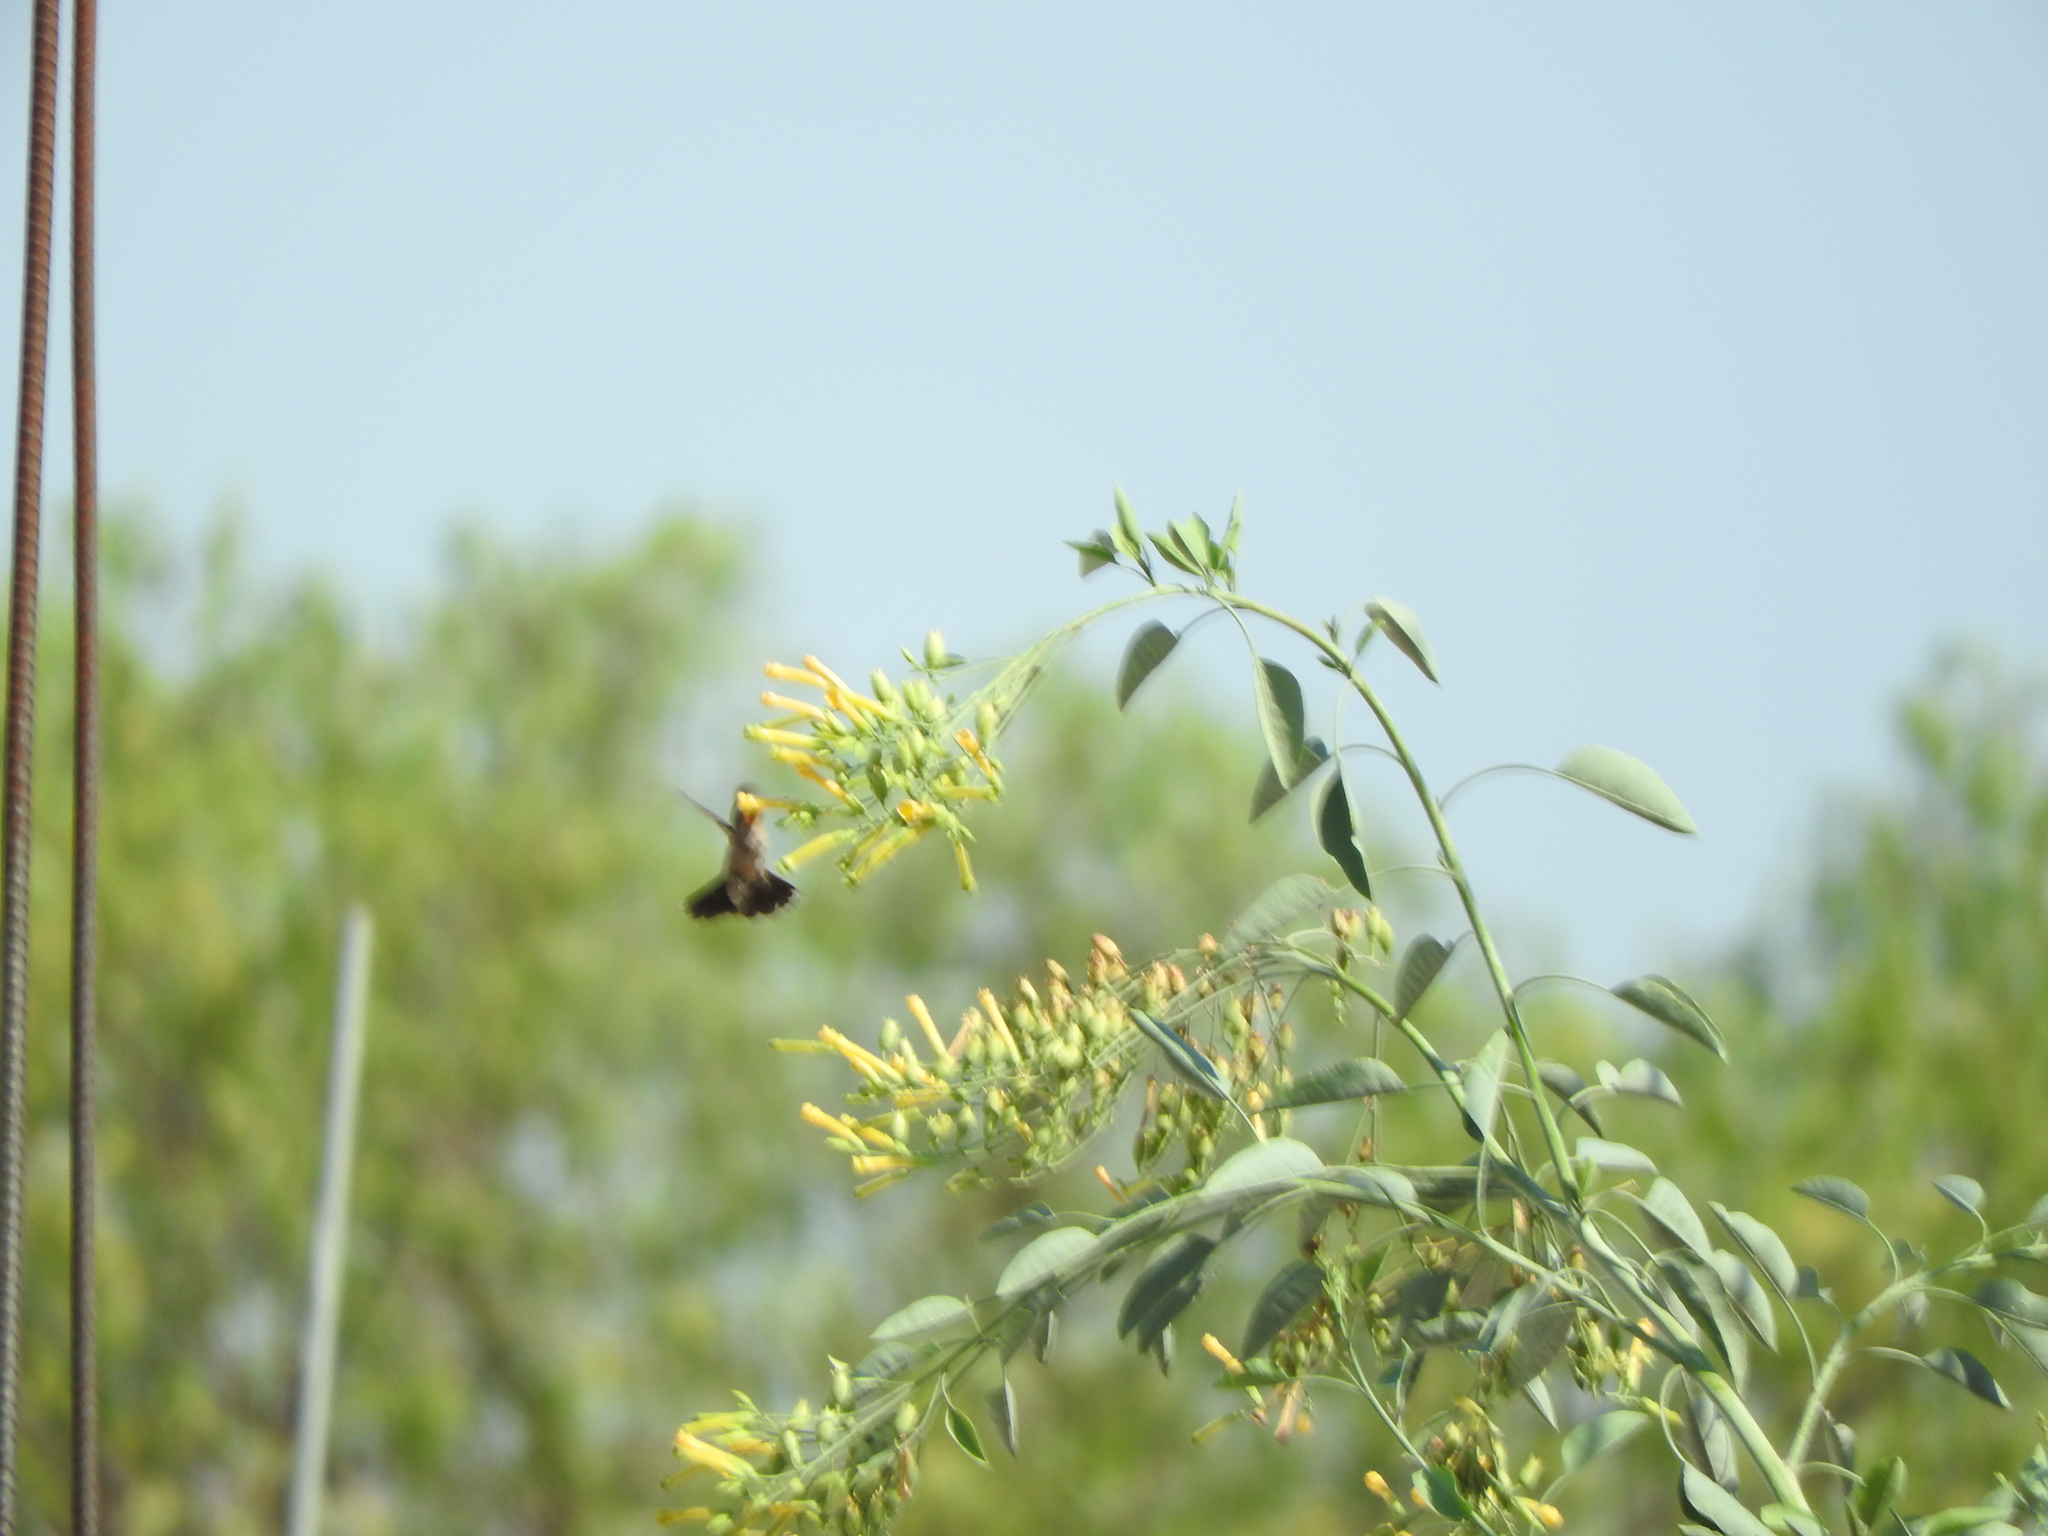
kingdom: Plantae
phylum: Tracheophyta
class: Magnoliopsida
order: Solanales
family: Solanaceae
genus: Nicotiana
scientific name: Nicotiana glauca
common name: Tree tobacco
